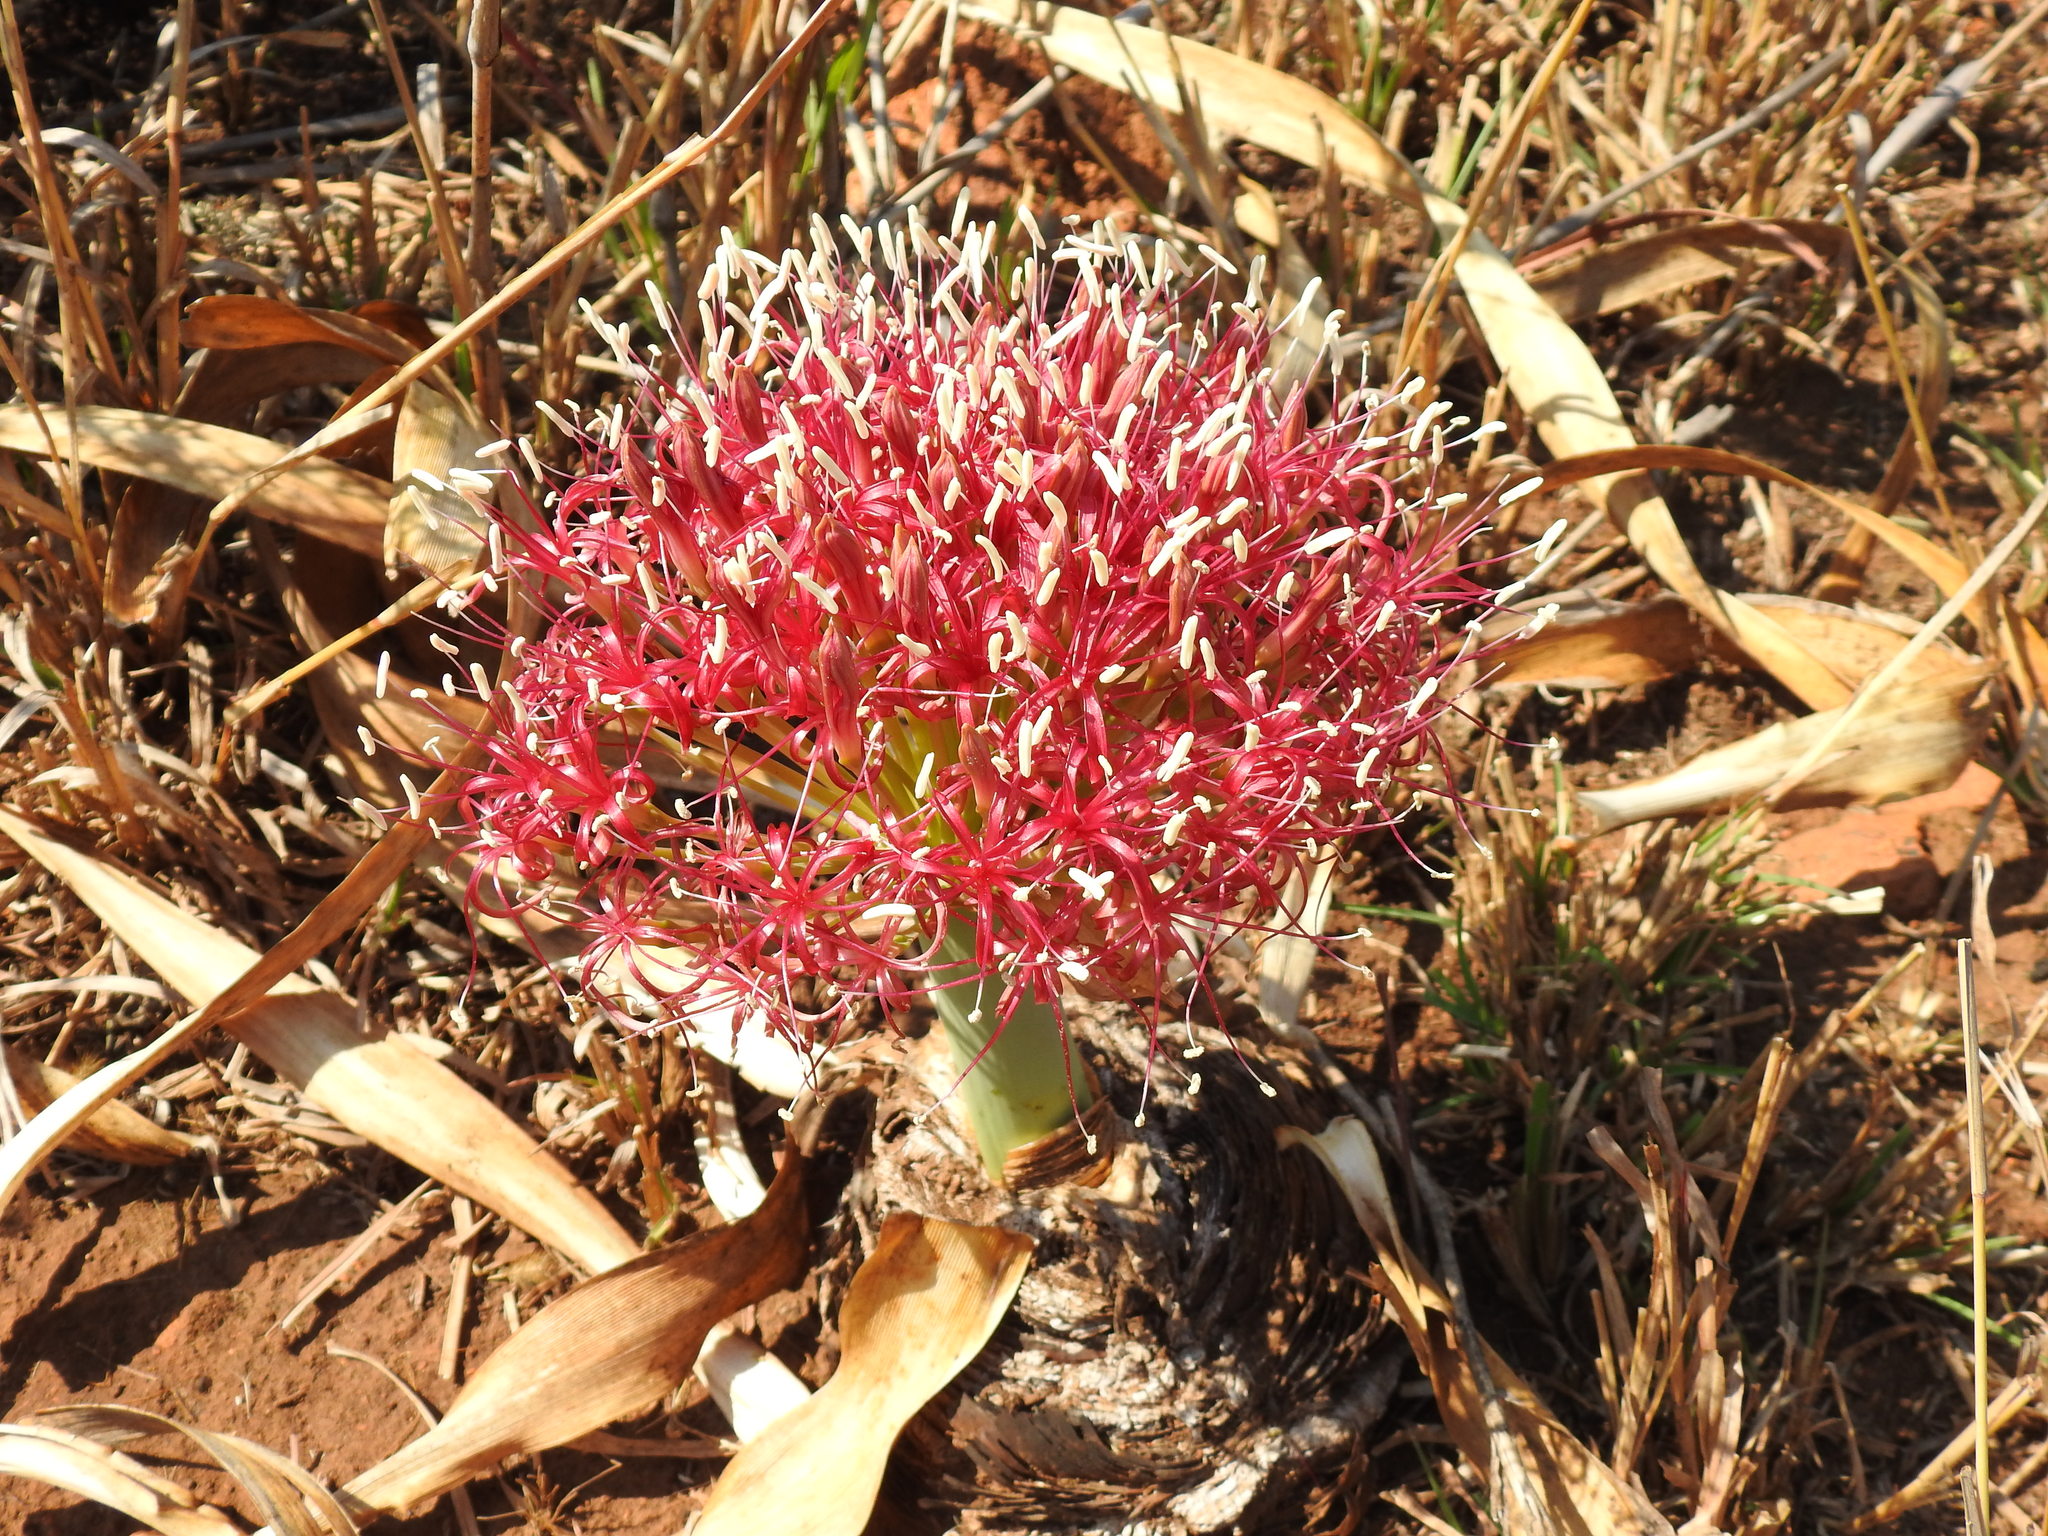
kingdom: Plantae
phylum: Tracheophyta
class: Liliopsida
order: Asparagales
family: Amaryllidaceae
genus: Boophone
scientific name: Boophone disticha
